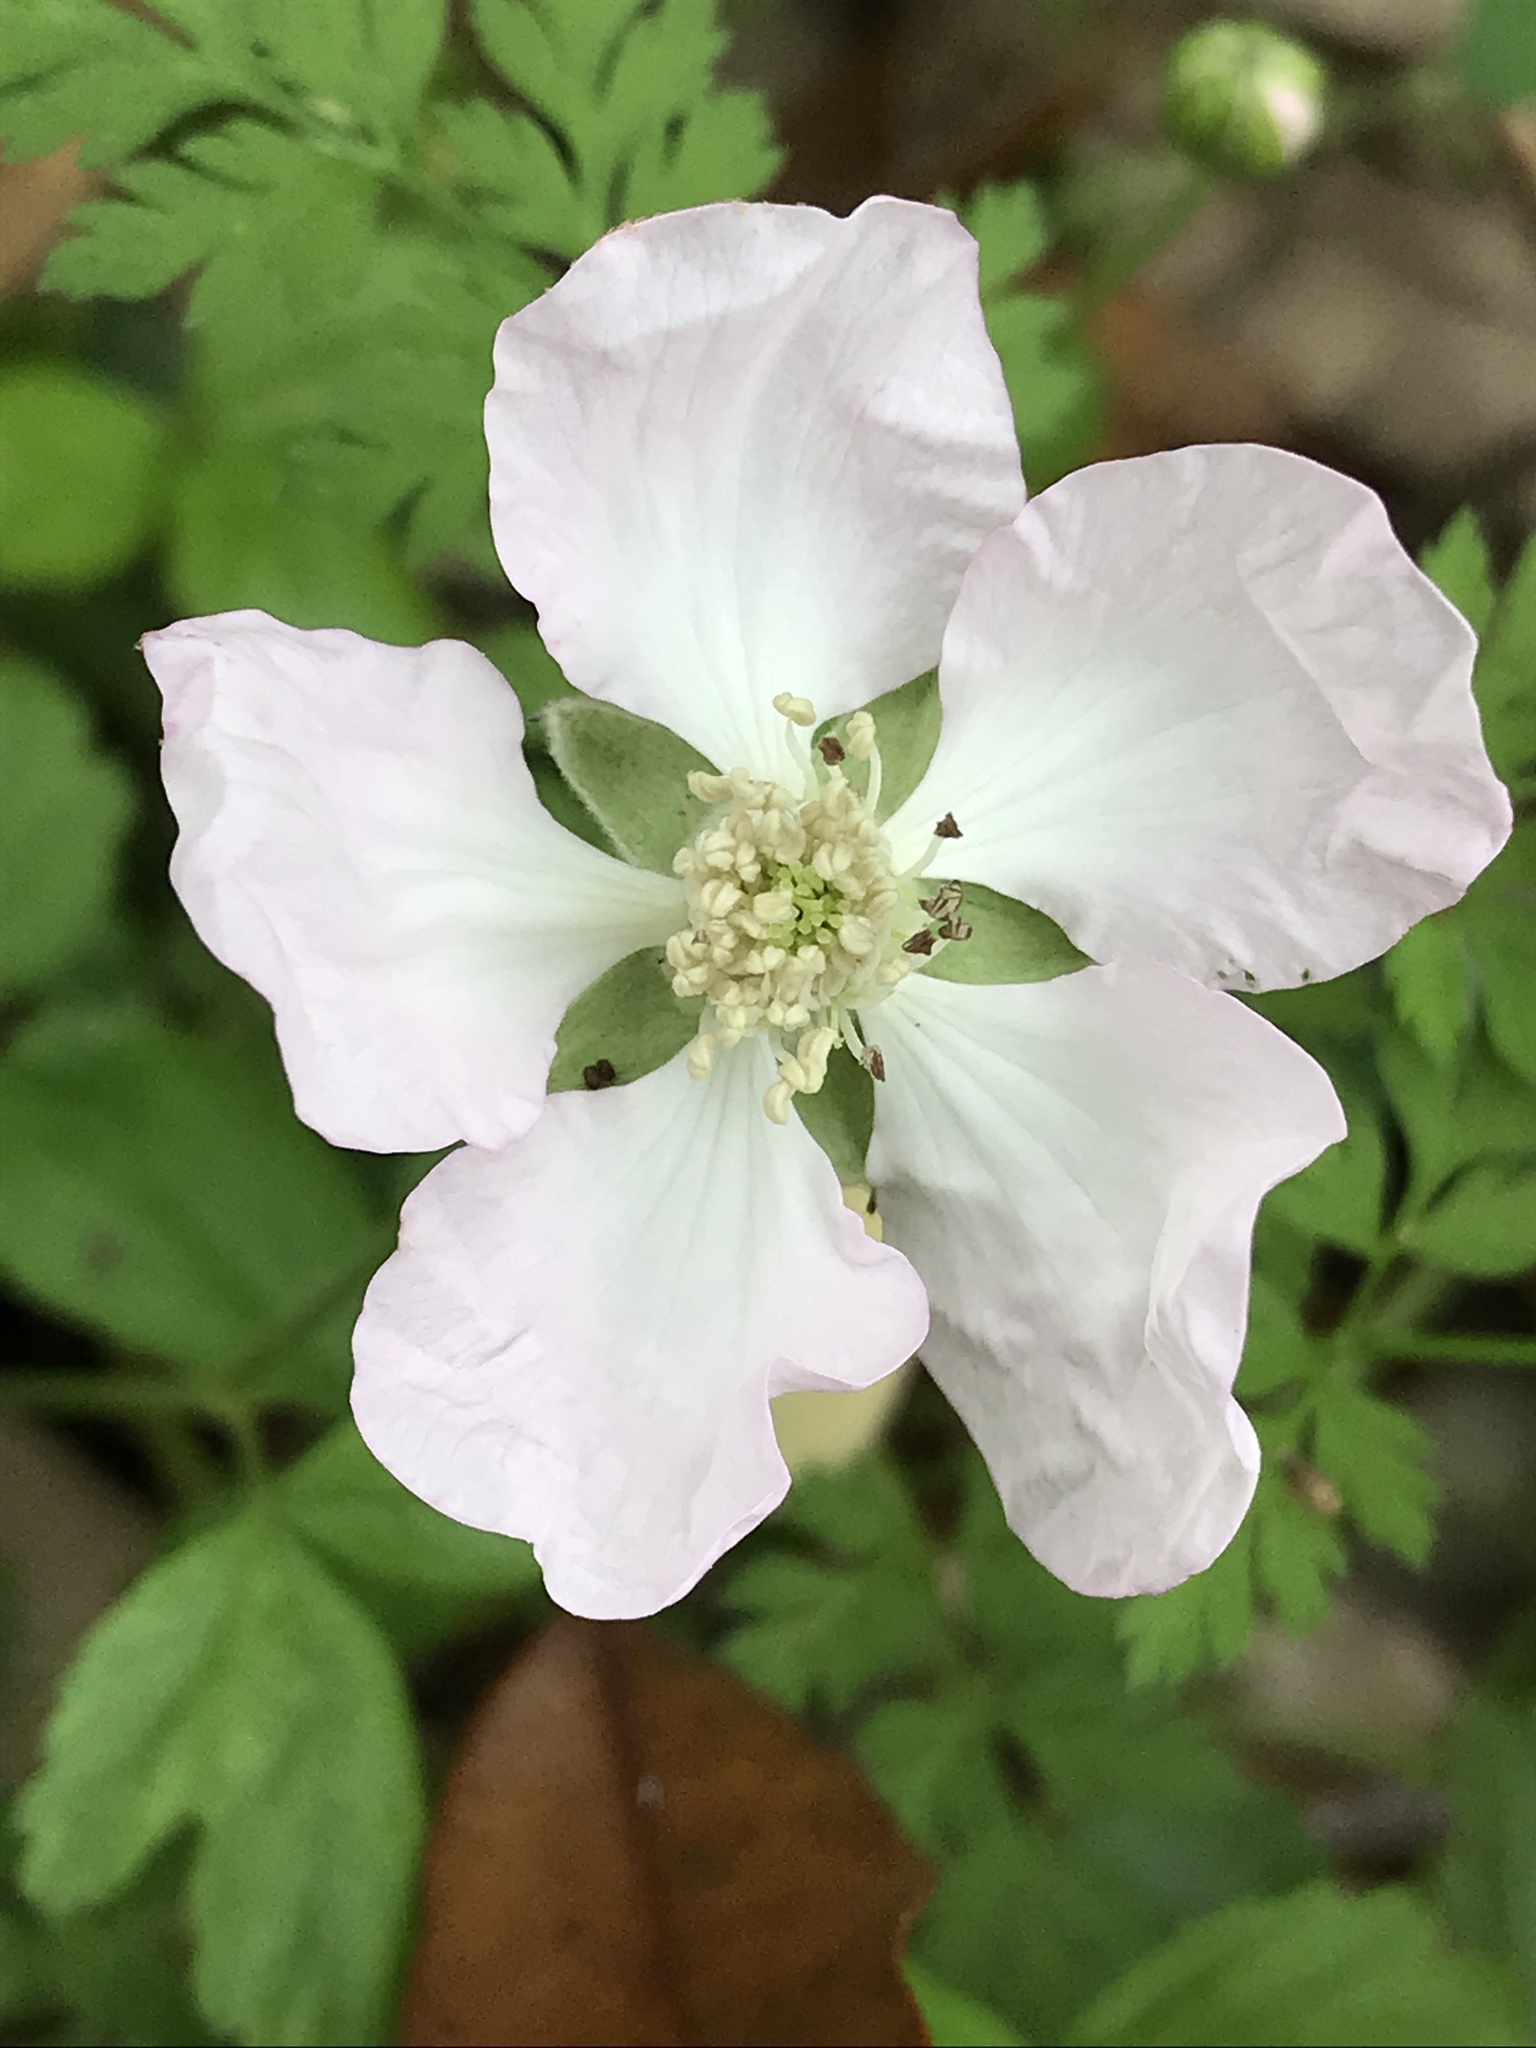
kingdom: Plantae
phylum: Tracheophyta
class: Magnoliopsida
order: Rosales
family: Rosaceae
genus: Rubus
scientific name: Rubus trivialis
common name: Southern dewberry
